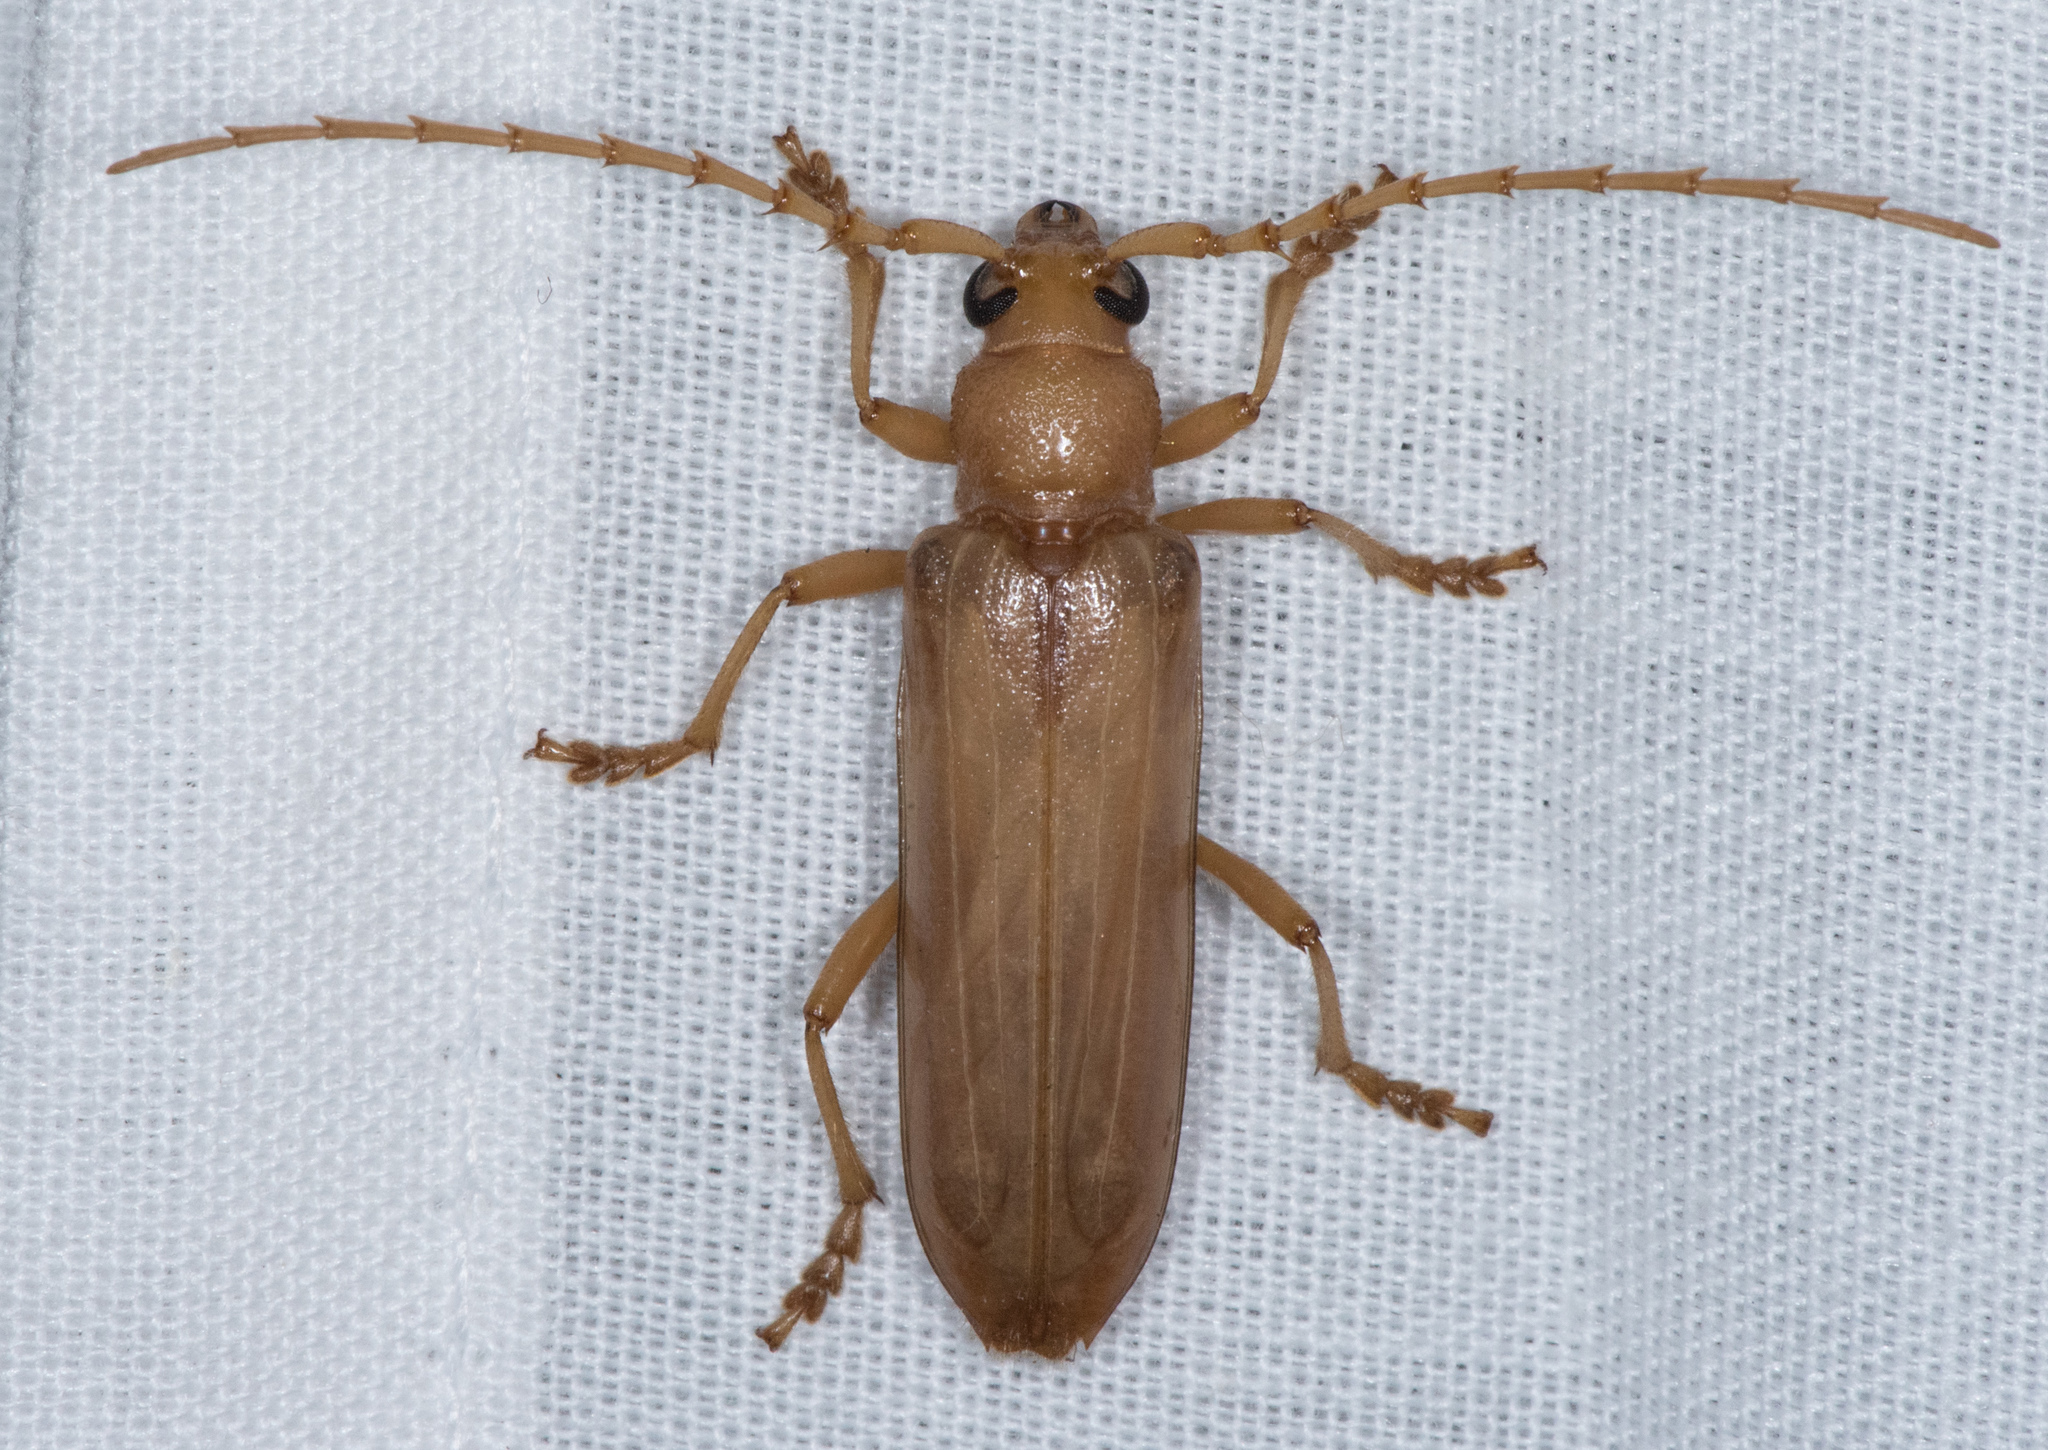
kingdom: Animalia
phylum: Arthropoda
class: Insecta
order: Coleoptera
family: Cerambycidae
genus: Atylostagma
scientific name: Atylostagma polita
